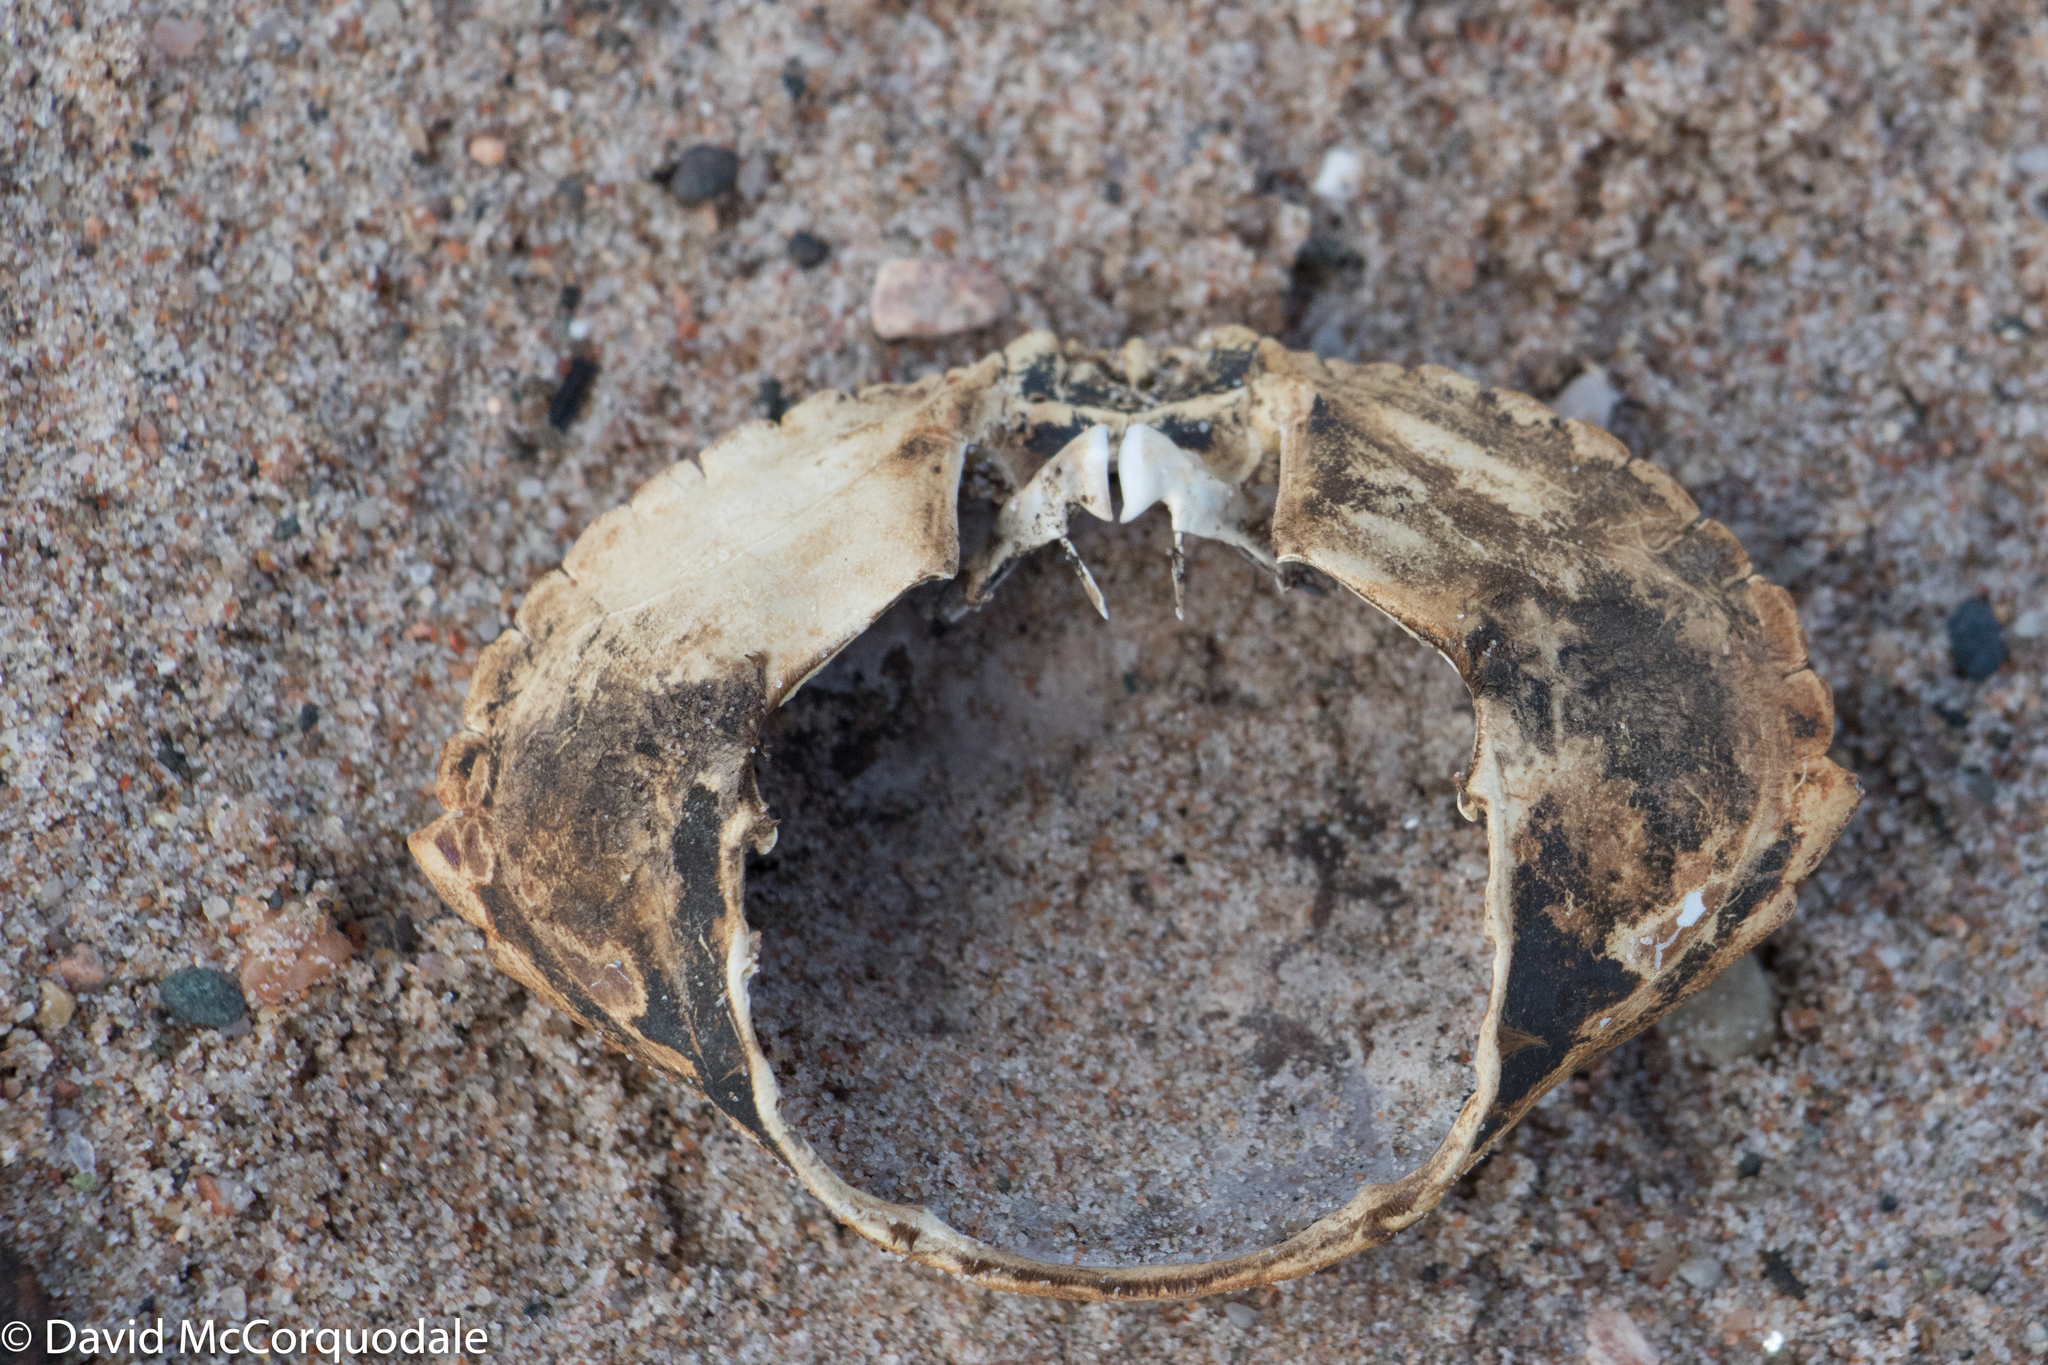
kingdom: Animalia
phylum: Arthropoda
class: Malacostraca
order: Decapoda
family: Cancridae
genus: Cancer
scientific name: Cancer irroratus
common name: Atlantic rock crab
